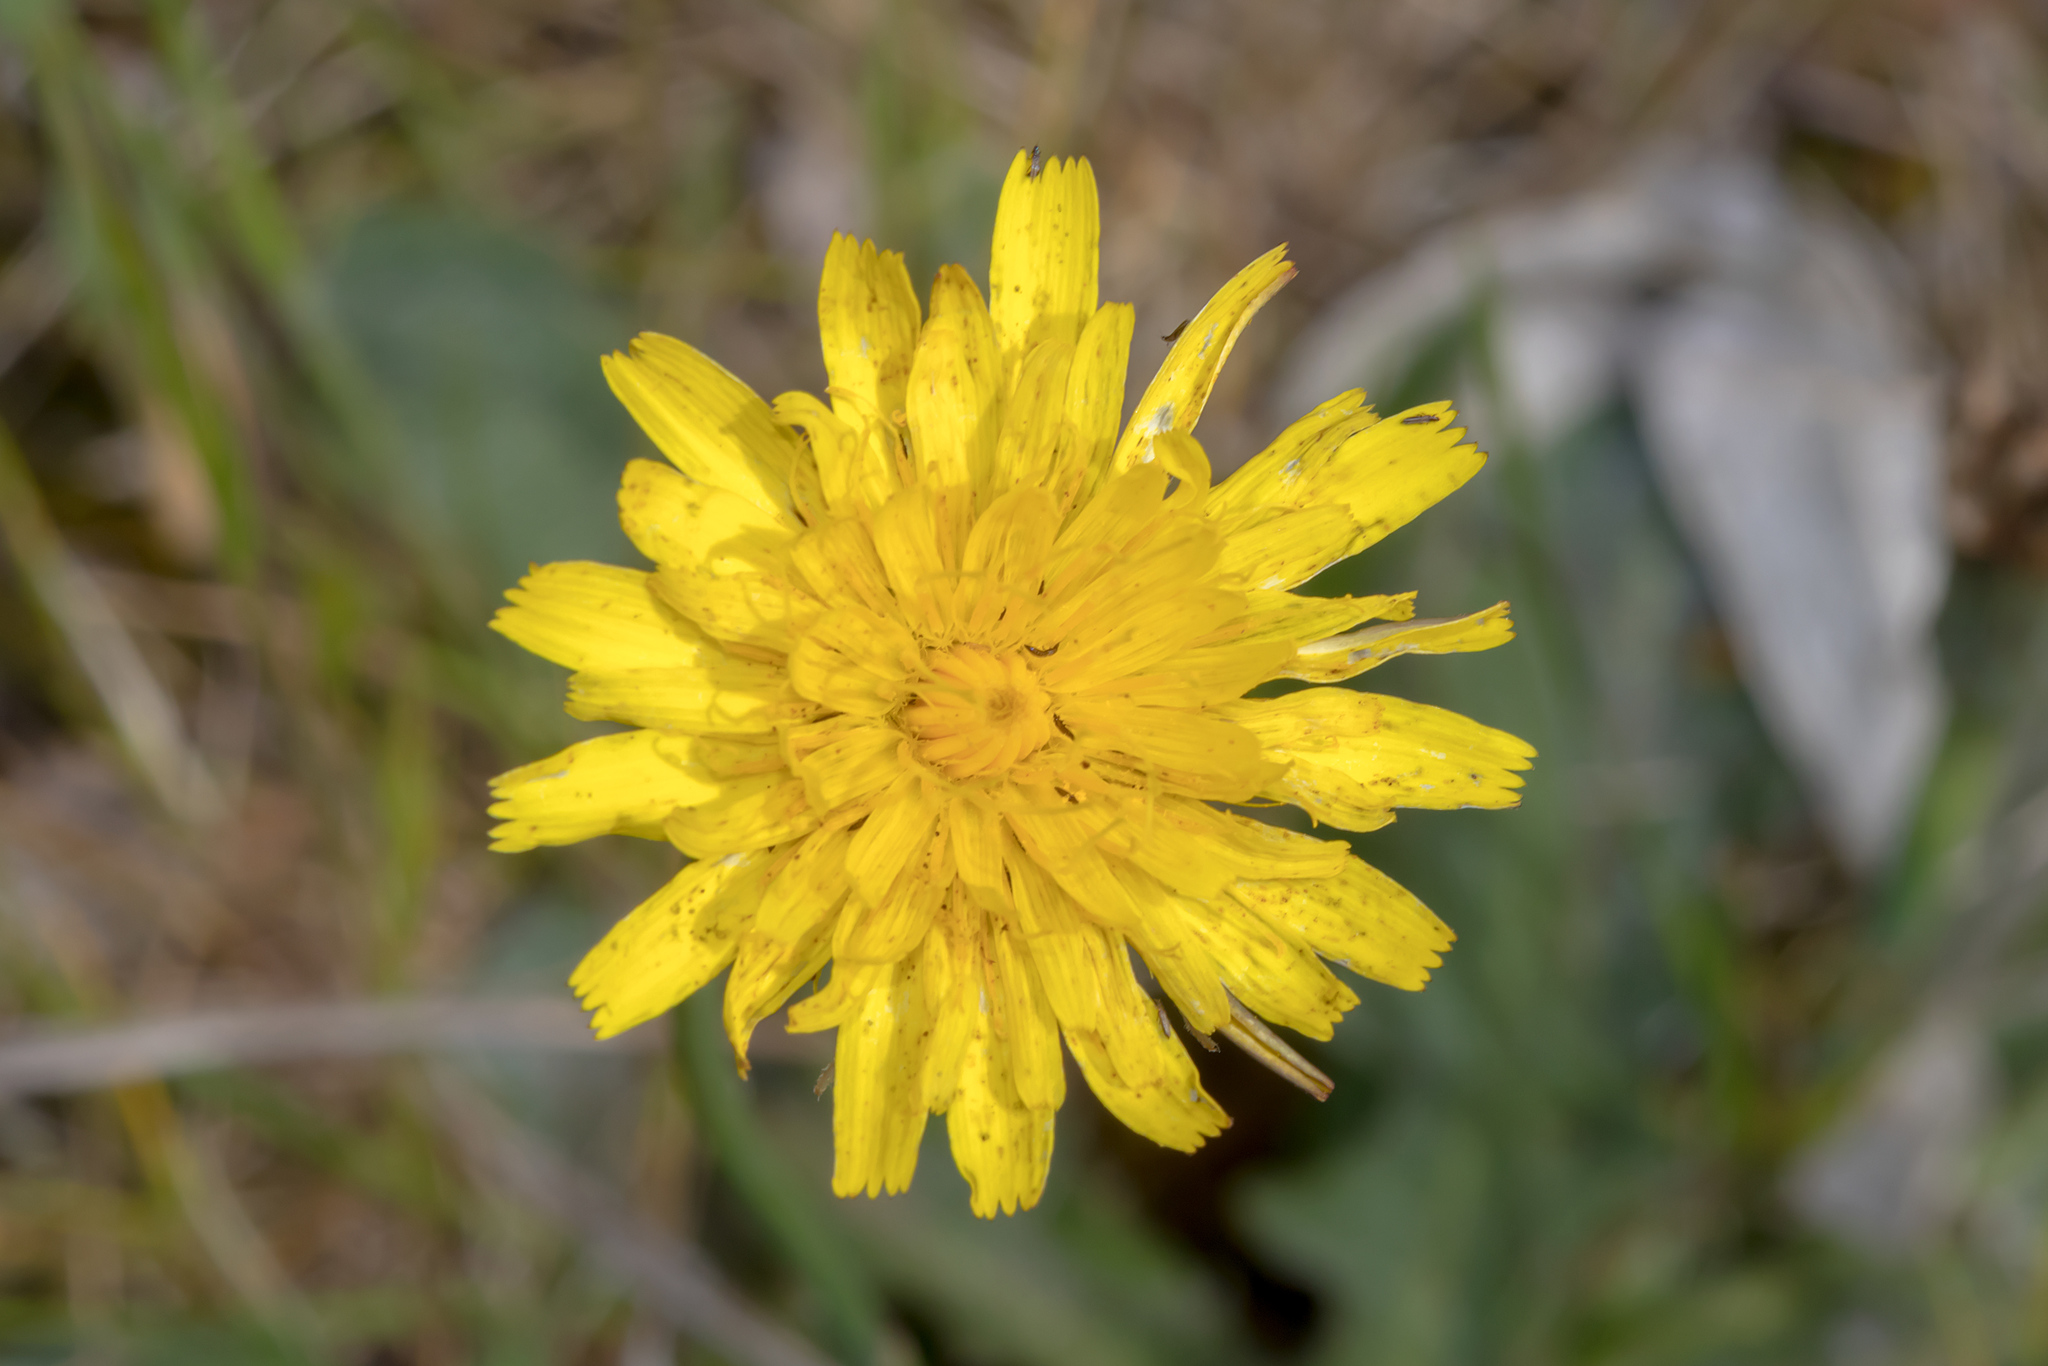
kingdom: Plantae
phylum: Tracheophyta
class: Magnoliopsida
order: Asterales
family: Asteraceae
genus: Hypochaeris
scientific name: Hypochaeris radicata
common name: Flatweed
